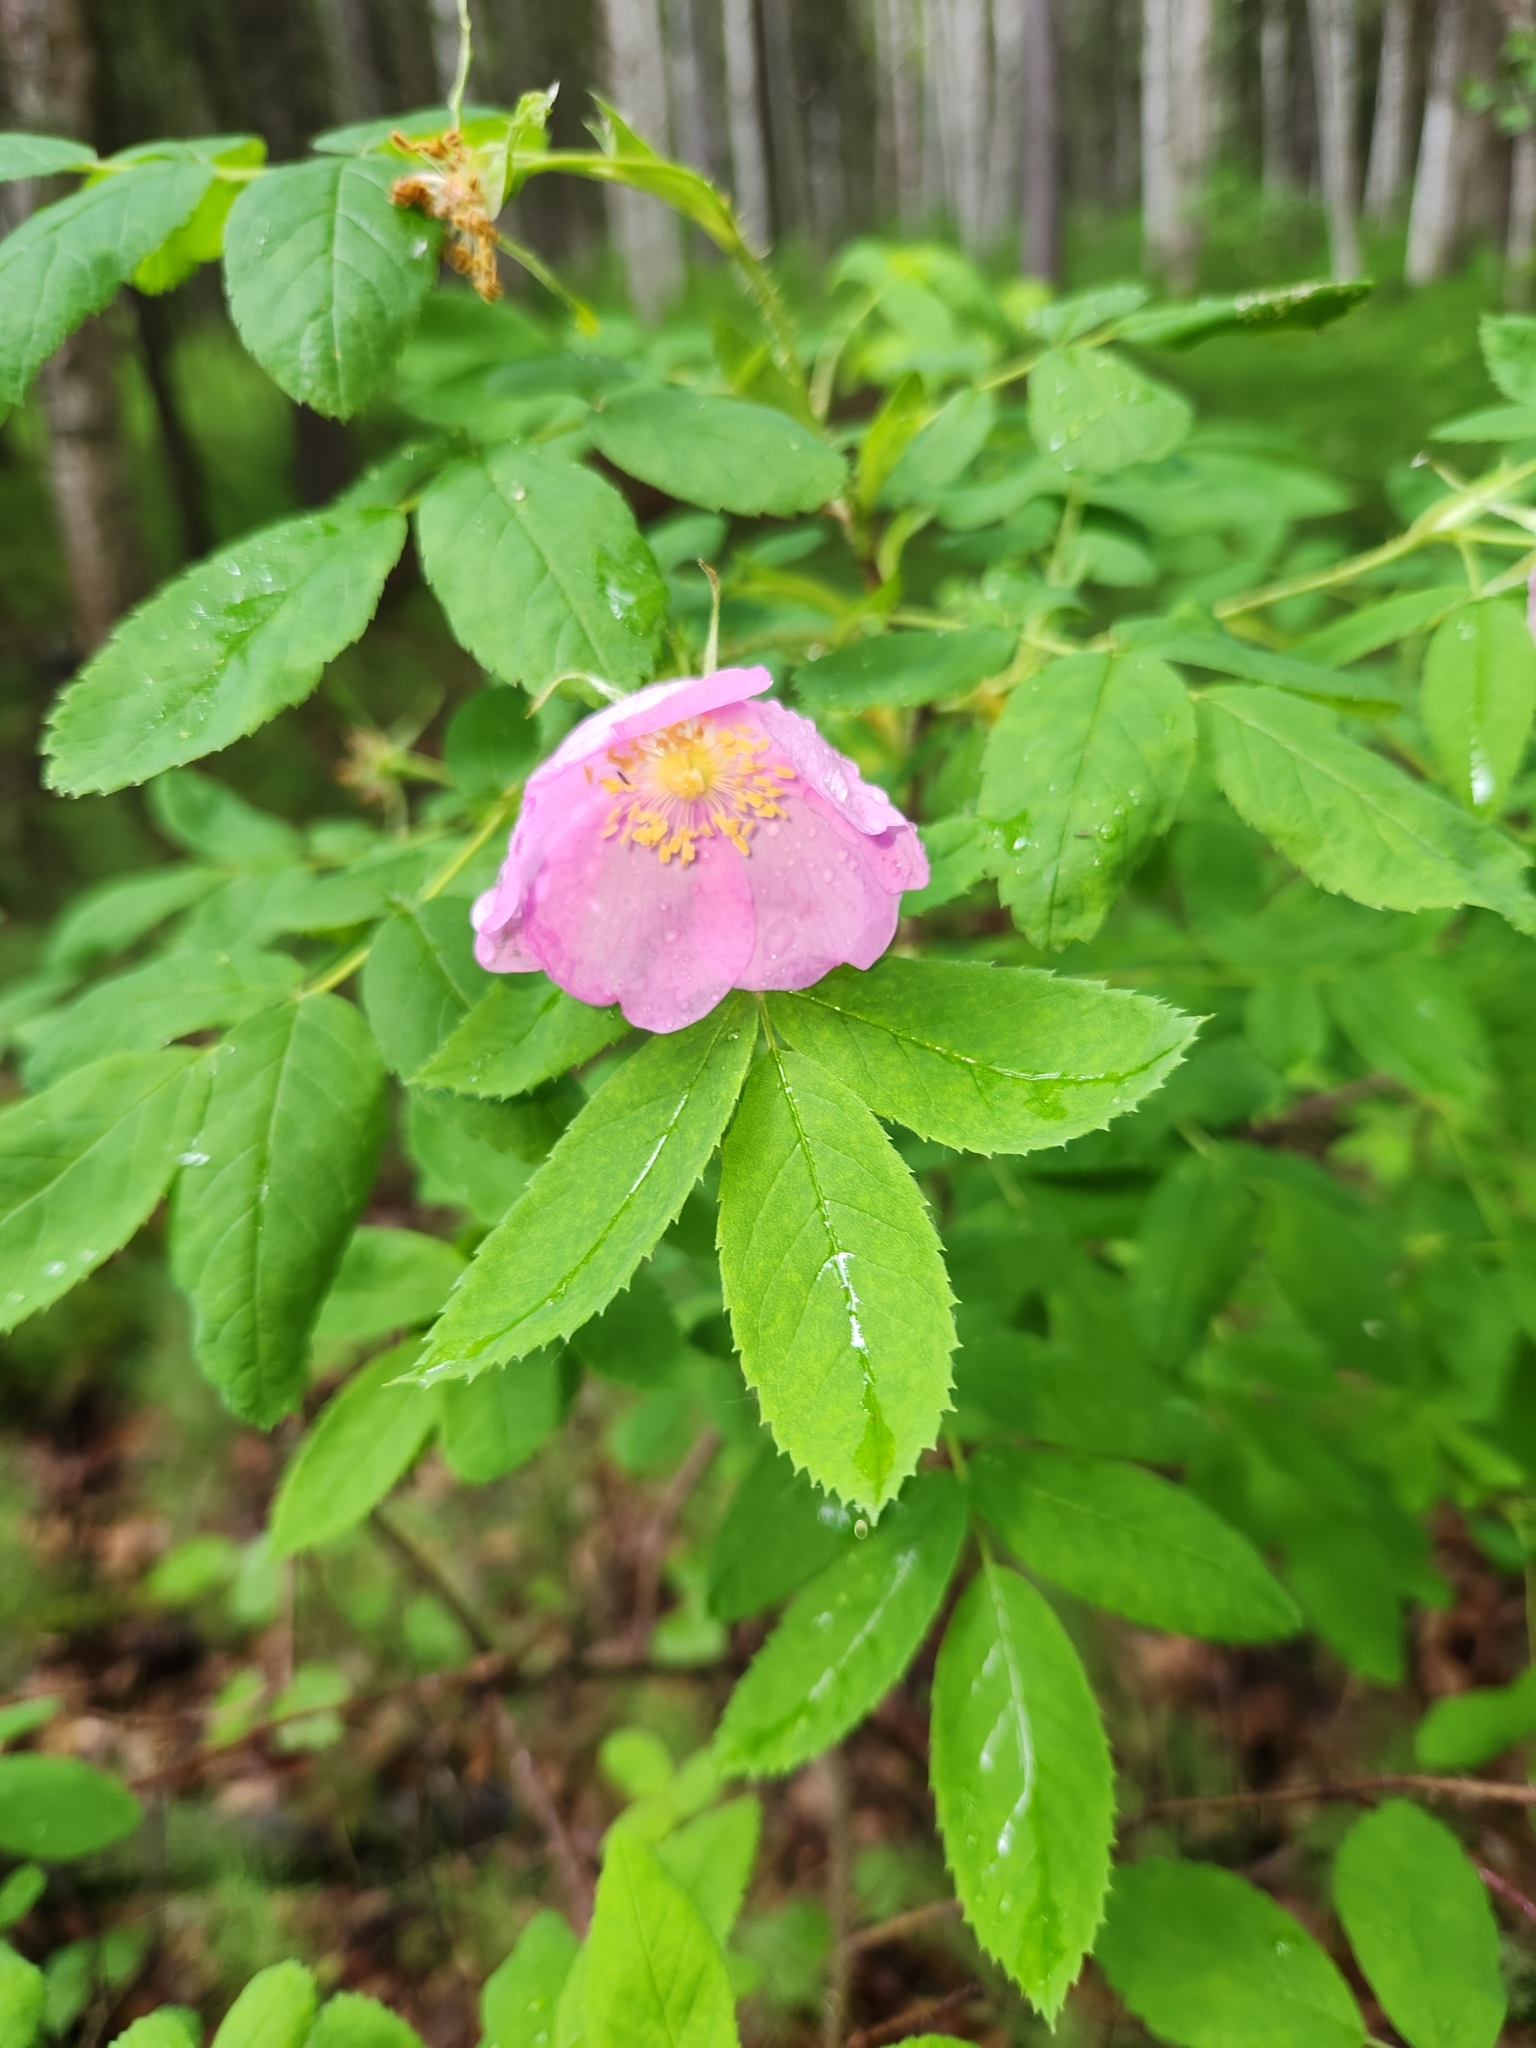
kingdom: Plantae
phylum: Tracheophyta
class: Magnoliopsida
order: Rosales
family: Rosaceae
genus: Rosa
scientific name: Rosa acicularis
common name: Prickly rose
